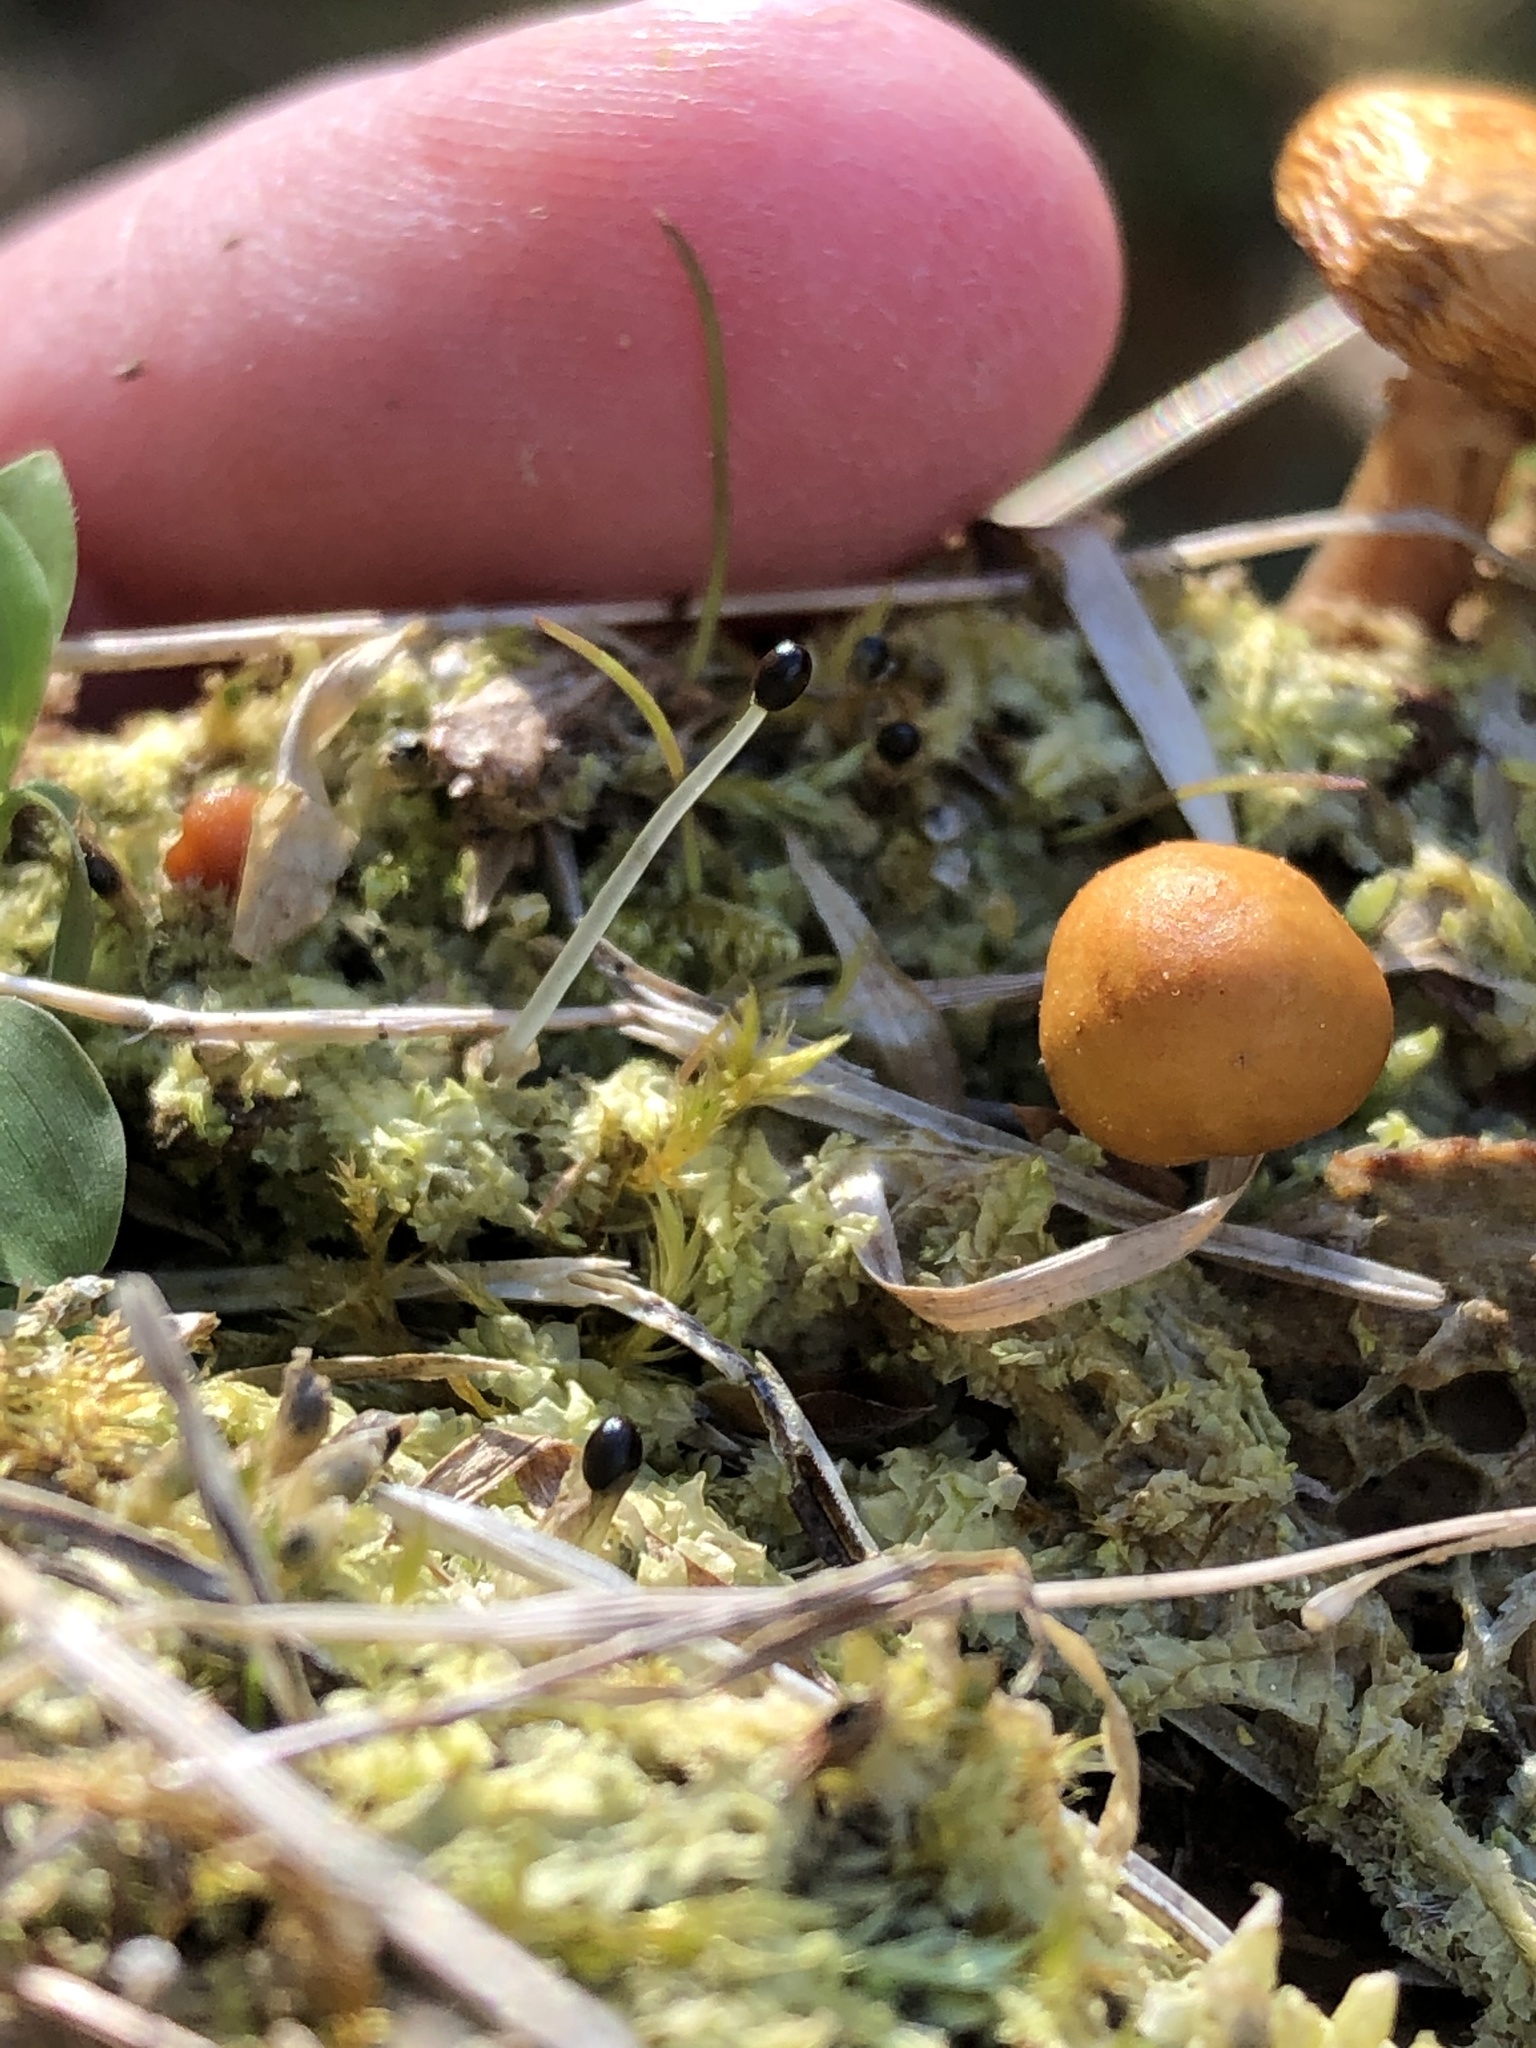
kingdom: Fungi
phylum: Basidiomycota
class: Agaricomycetes
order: Agaricales
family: Hymenogastraceae
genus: Galerina
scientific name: Galerina marginata
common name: Funeral bell
